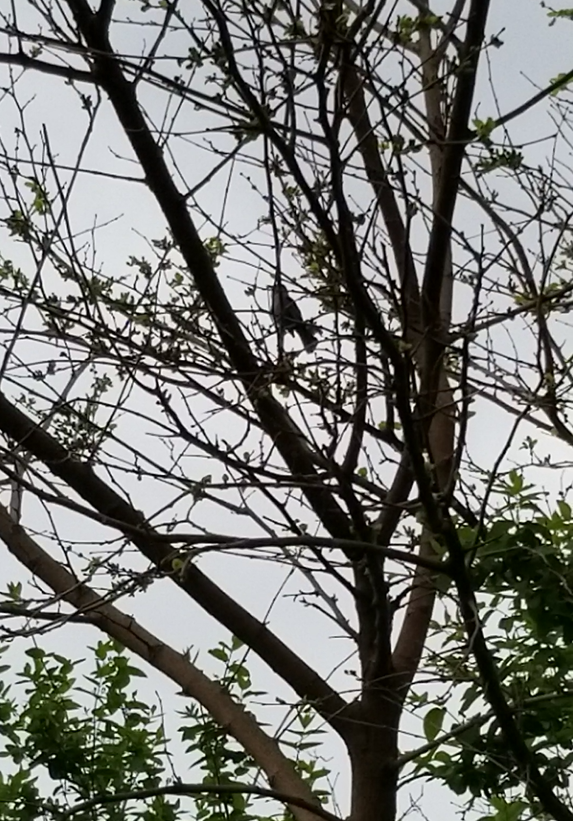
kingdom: Animalia
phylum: Chordata
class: Aves
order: Passeriformes
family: Mimidae
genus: Dumetella
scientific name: Dumetella carolinensis
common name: Gray catbird
